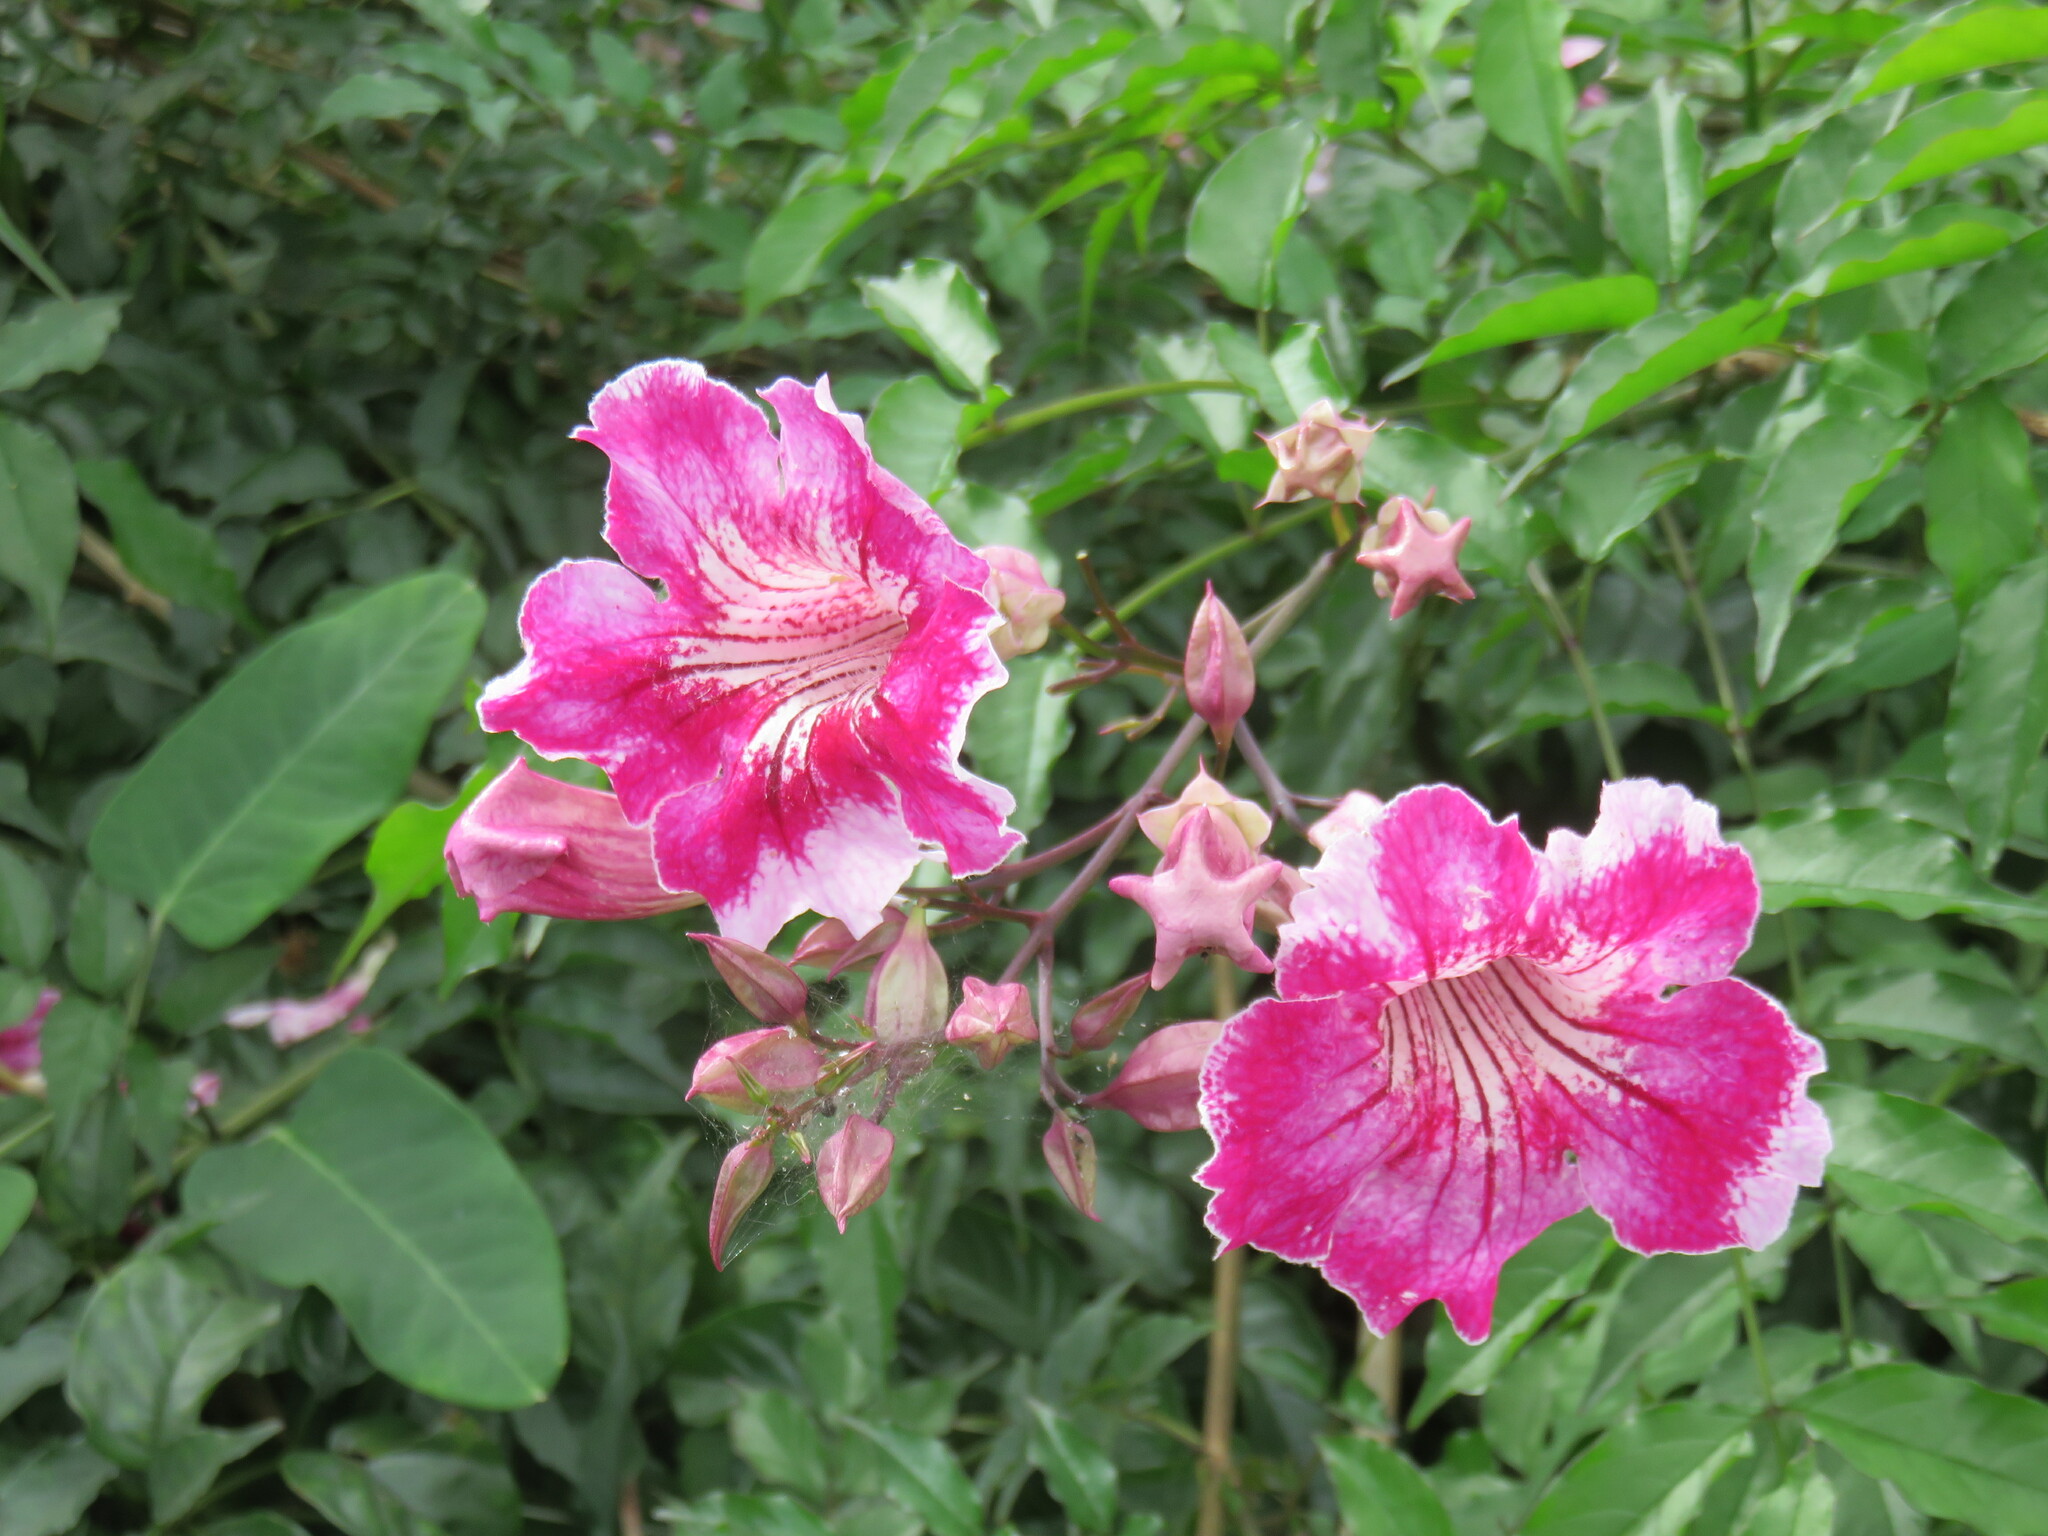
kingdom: Plantae
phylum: Tracheophyta
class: Magnoliopsida
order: Lamiales
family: Bignoniaceae
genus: Podranea
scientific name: Podranea ricasoliana
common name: Zimbabwe creeper
